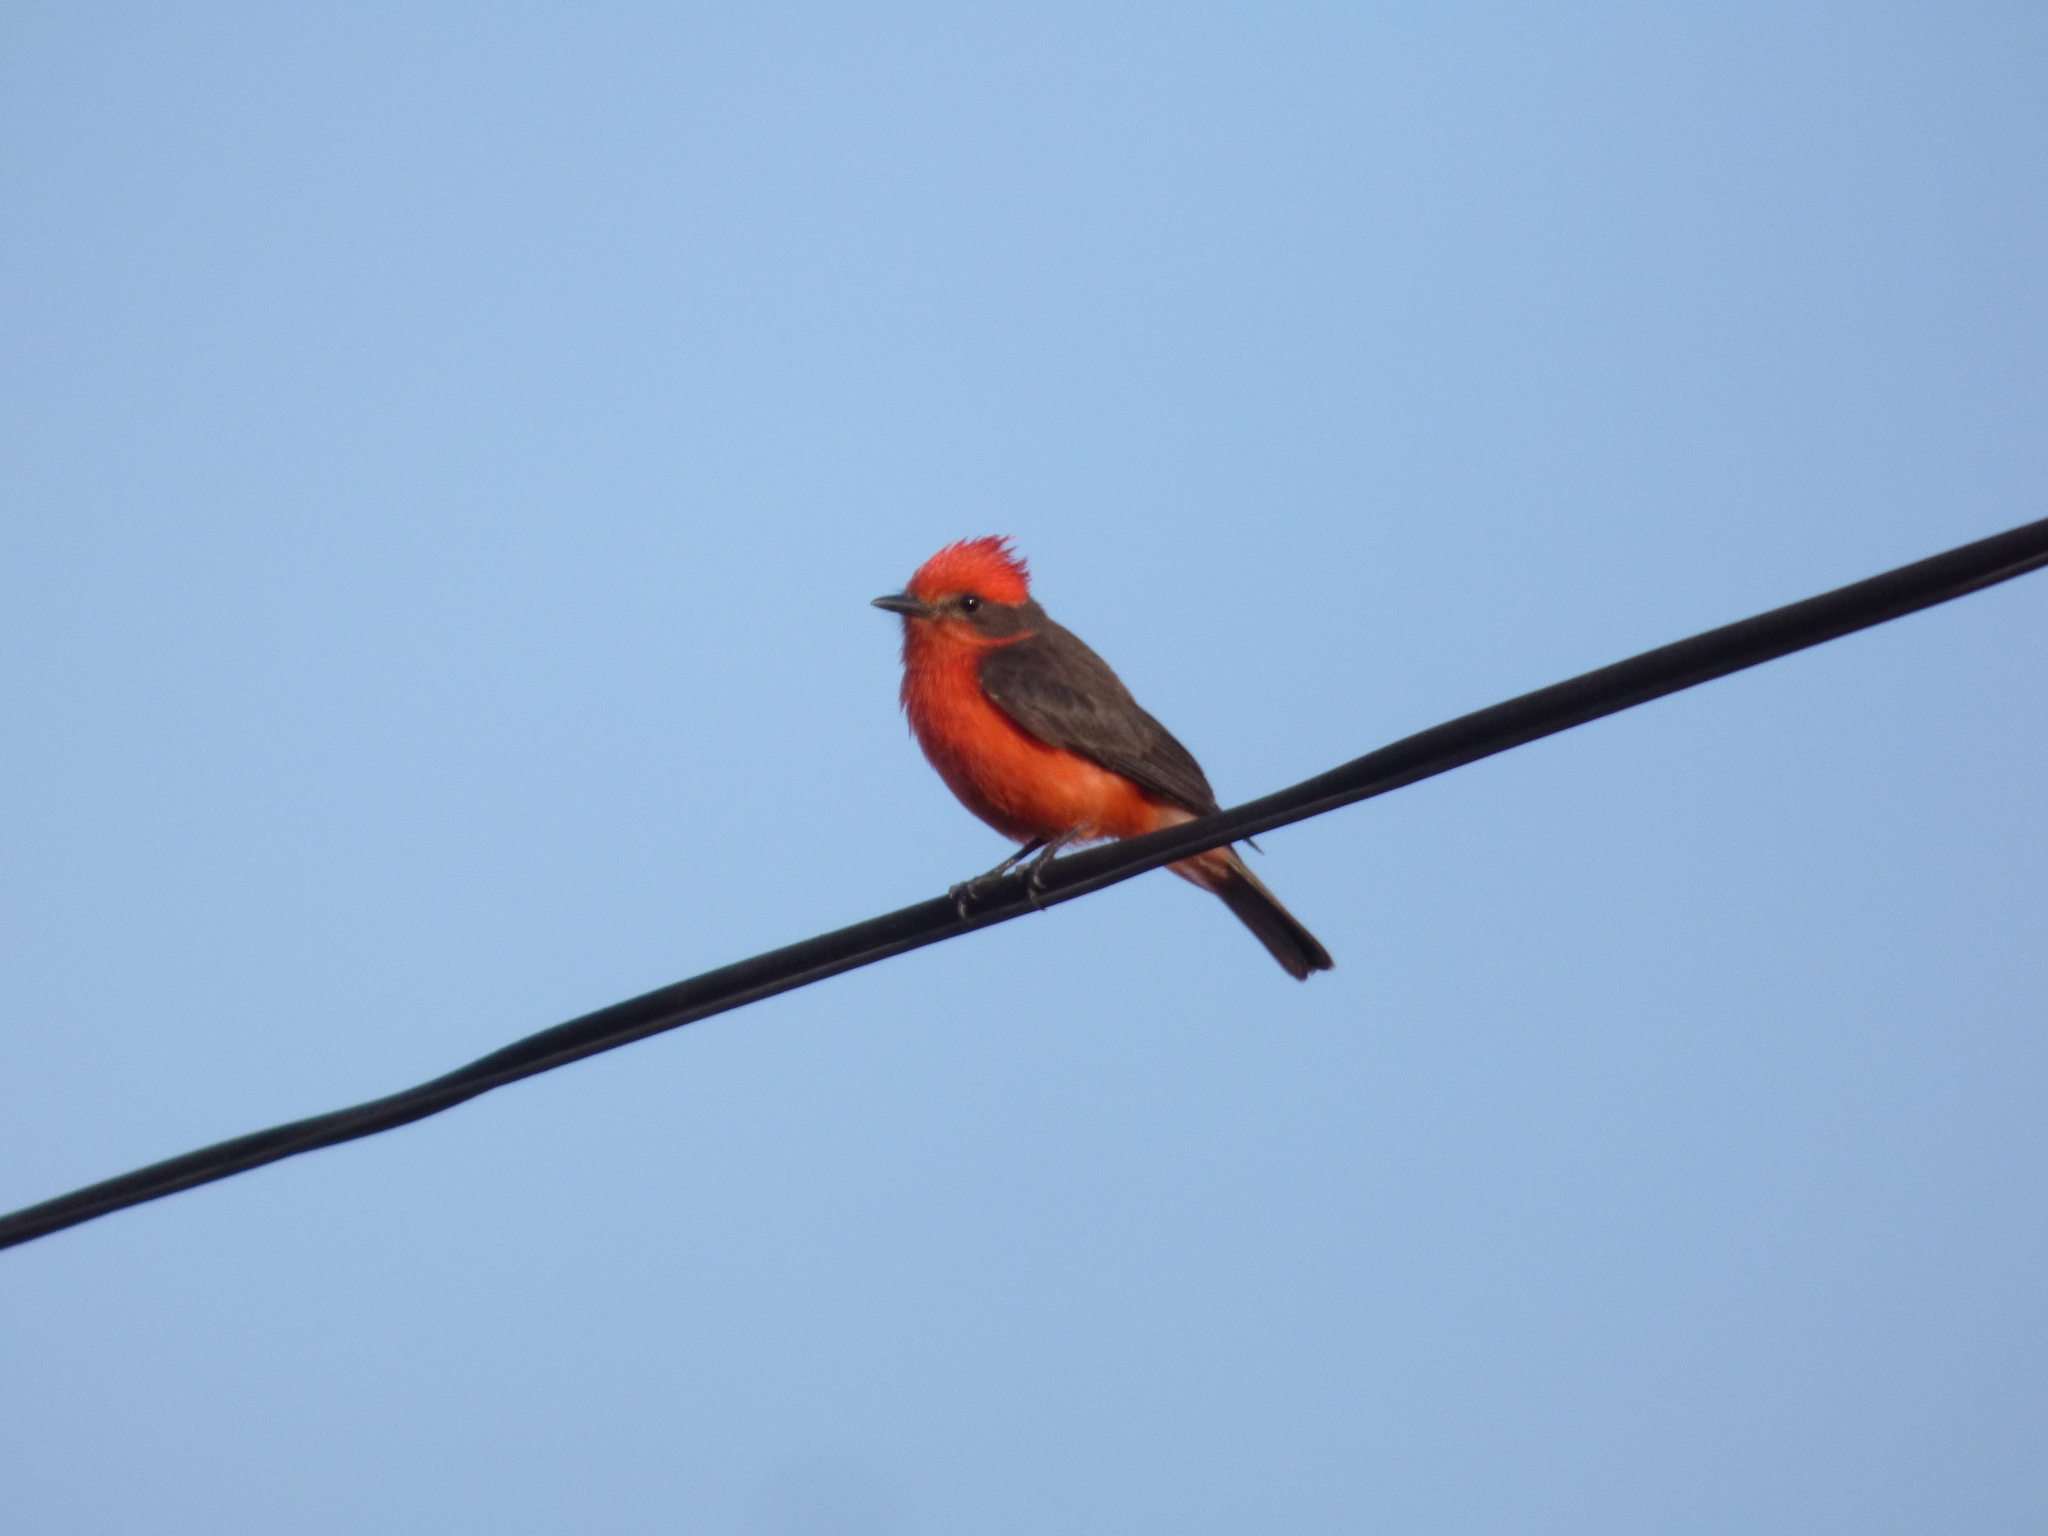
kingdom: Animalia
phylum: Chordata
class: Aves
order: Passeriformes
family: Tyrannidae
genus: Pyrocephalus
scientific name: Pyrocephalus rubinus
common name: Vermilion flycatcher
